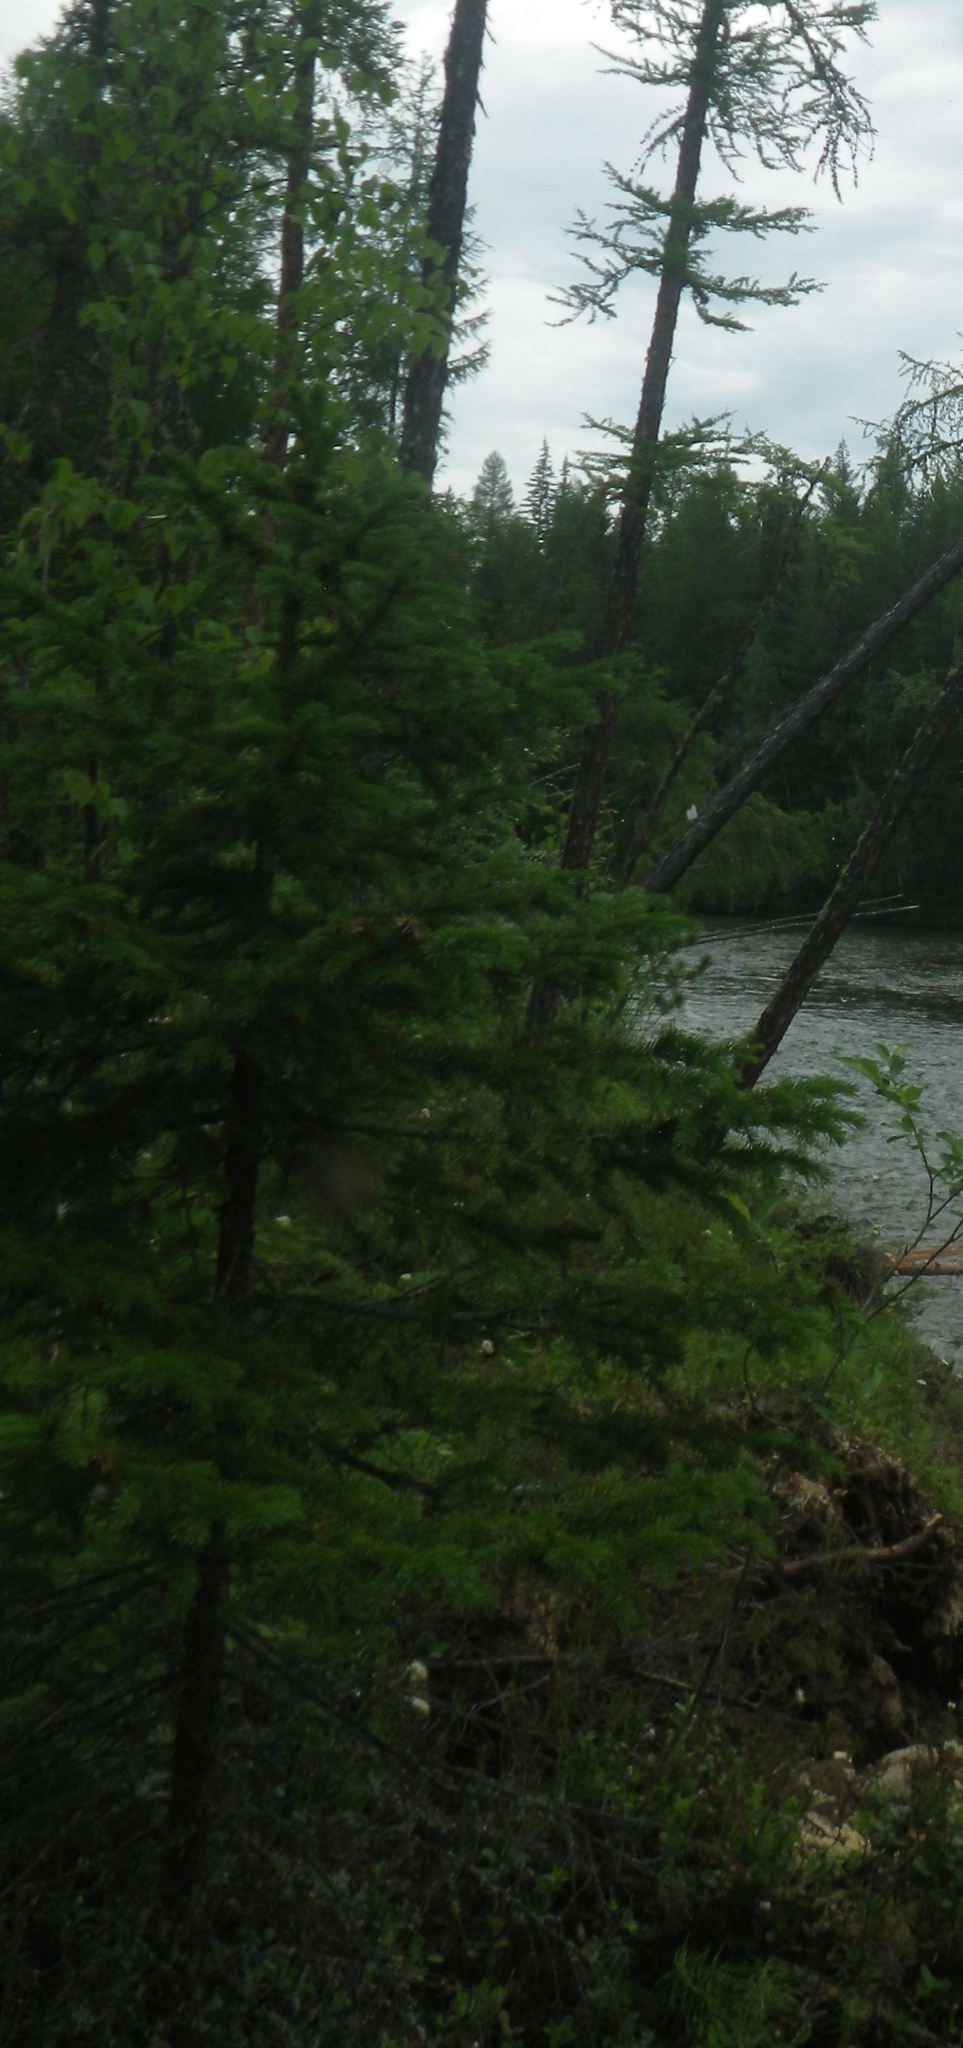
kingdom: Plantae
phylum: Tracheophyta
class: Pinopsida
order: Pinales
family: Pinaceae
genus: Picea
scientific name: Picea obovata
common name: Siberian spruce
